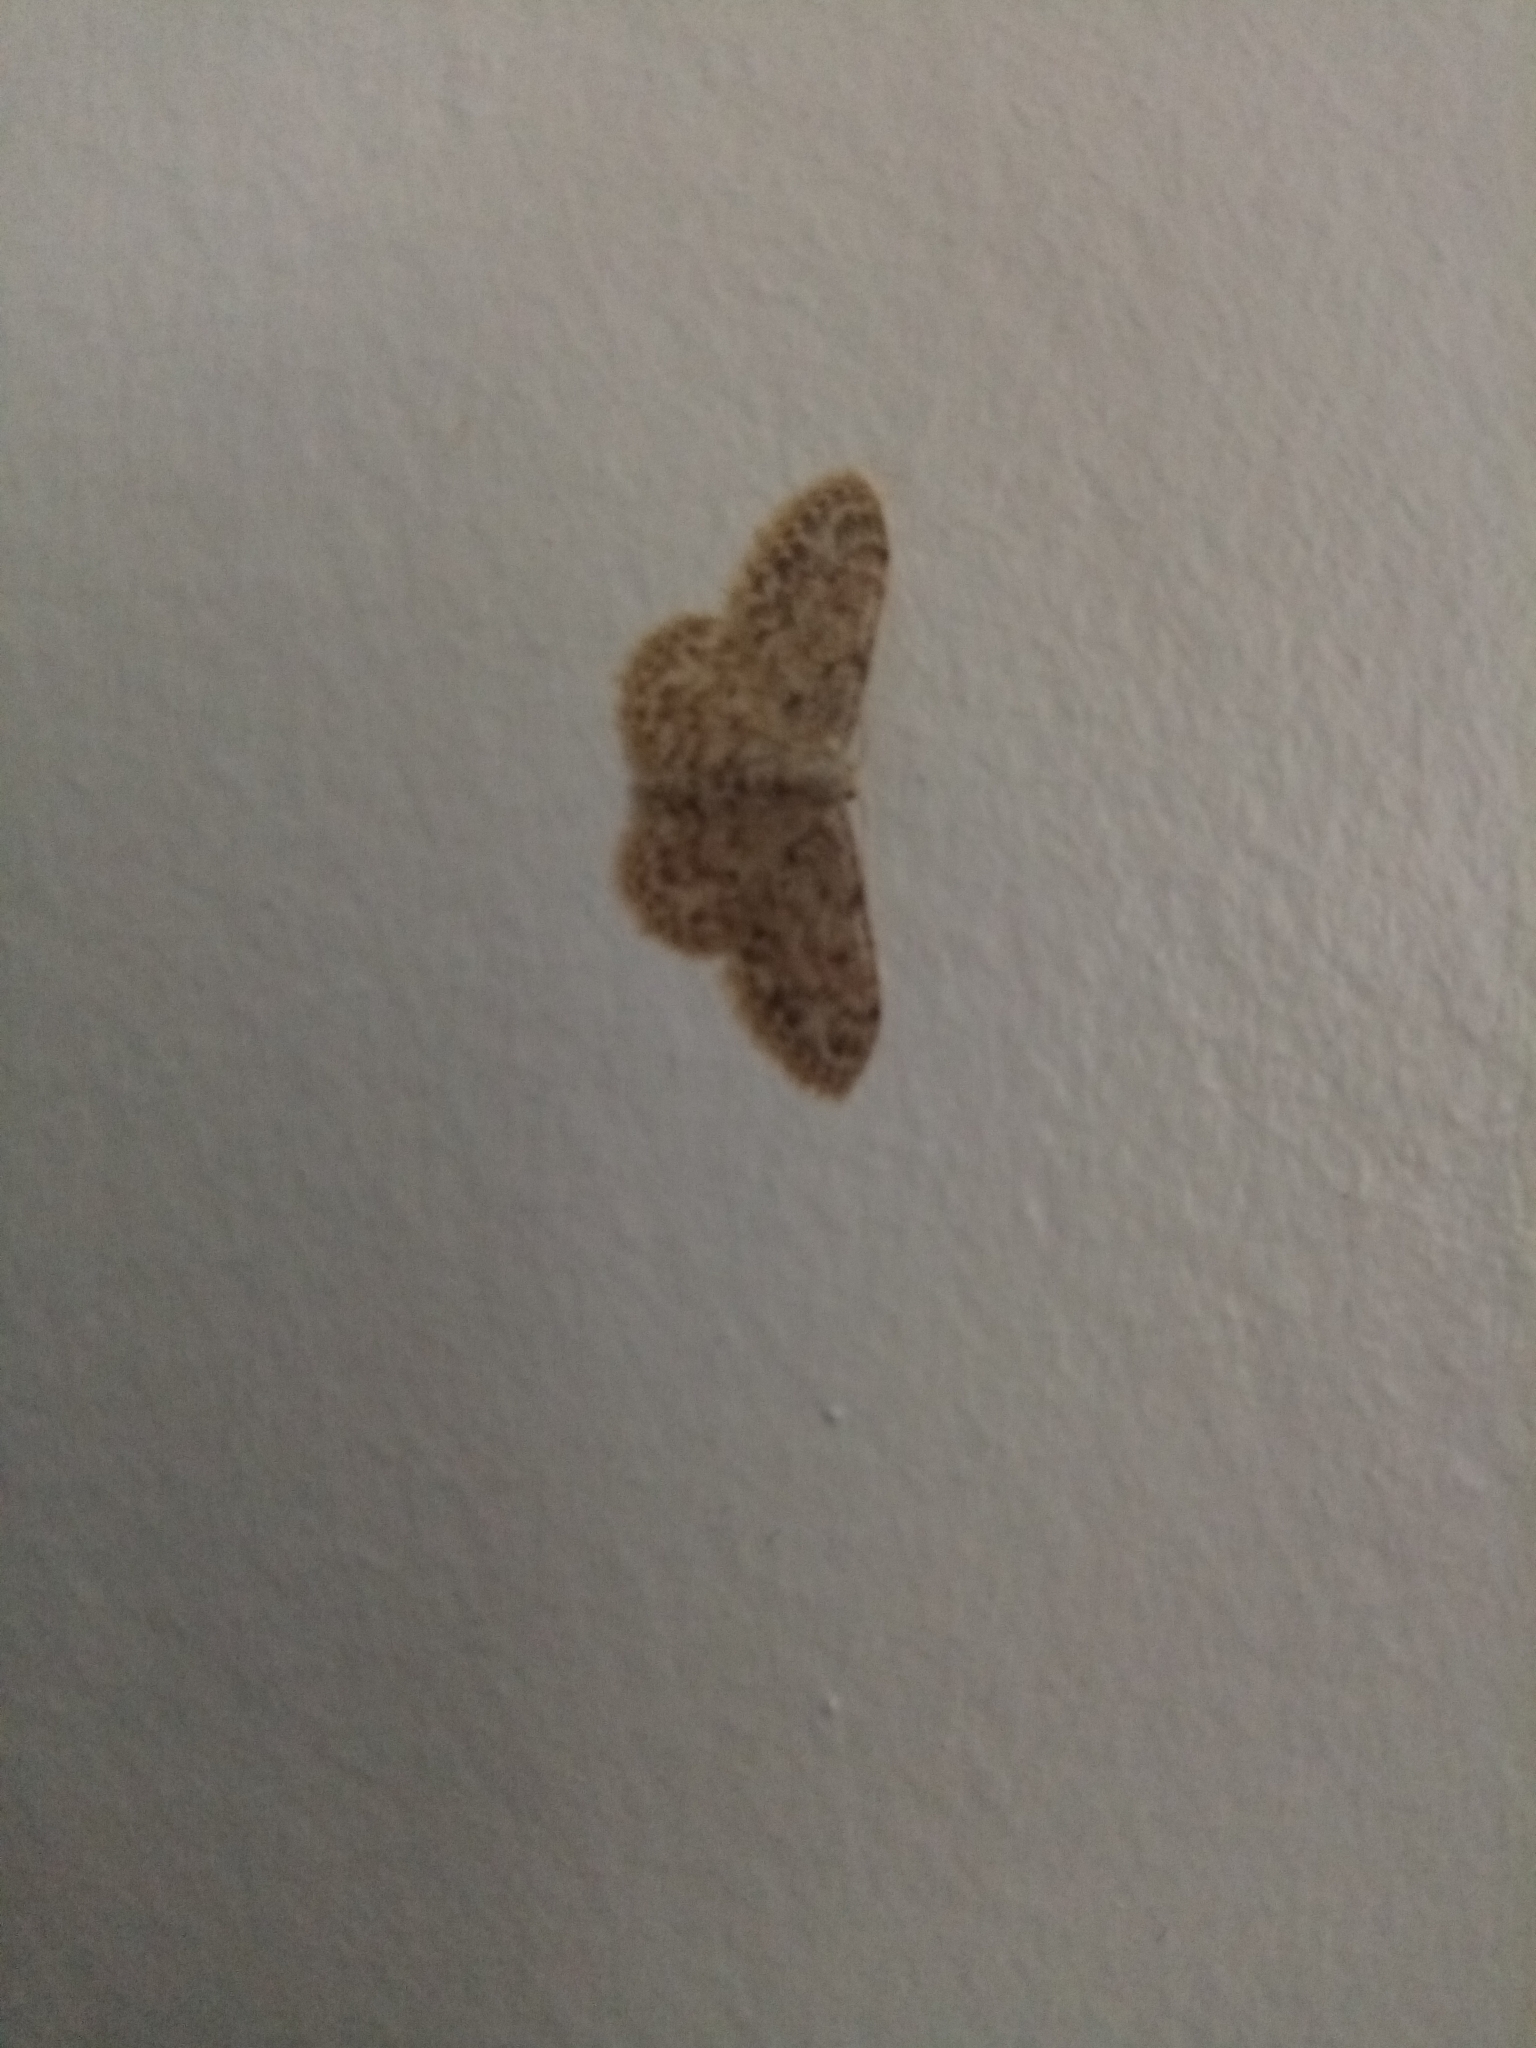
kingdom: Animalia
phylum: Arthropoda
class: Insecta
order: Lepidoptera
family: Geometridae
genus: Idaea
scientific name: Idaea cervantaria
